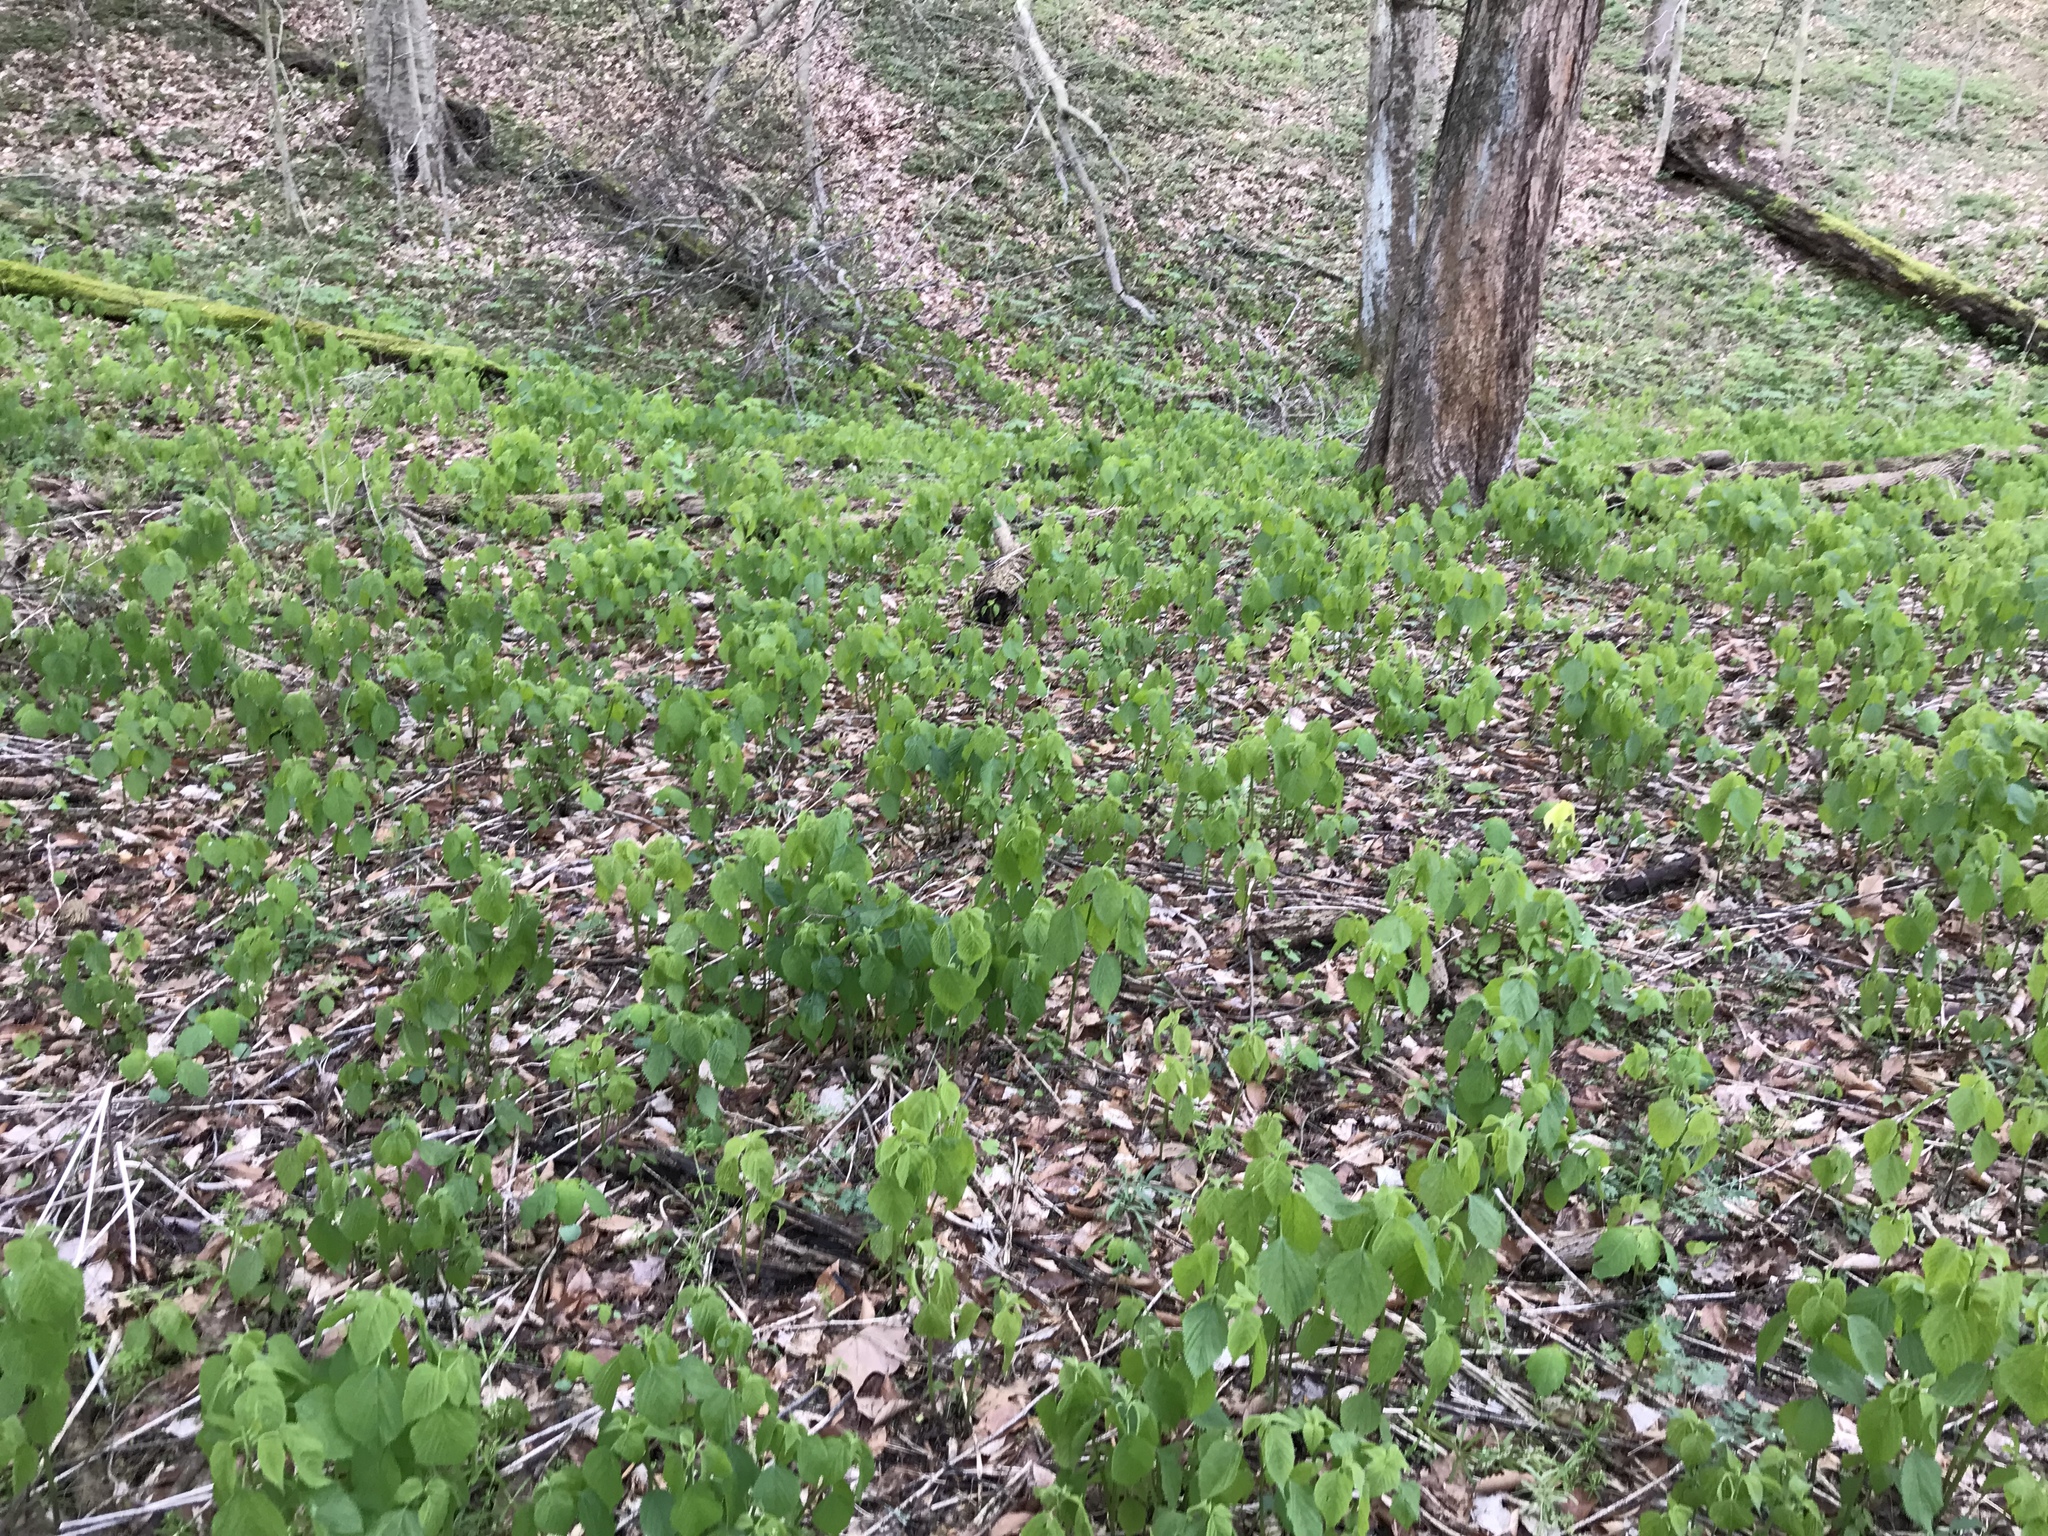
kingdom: Plantae
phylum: Tracheophyta
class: Magnoliopsida
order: Rosales
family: Urticaceae
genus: Laportea
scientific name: Laportea canadensis
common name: Canada nettle
